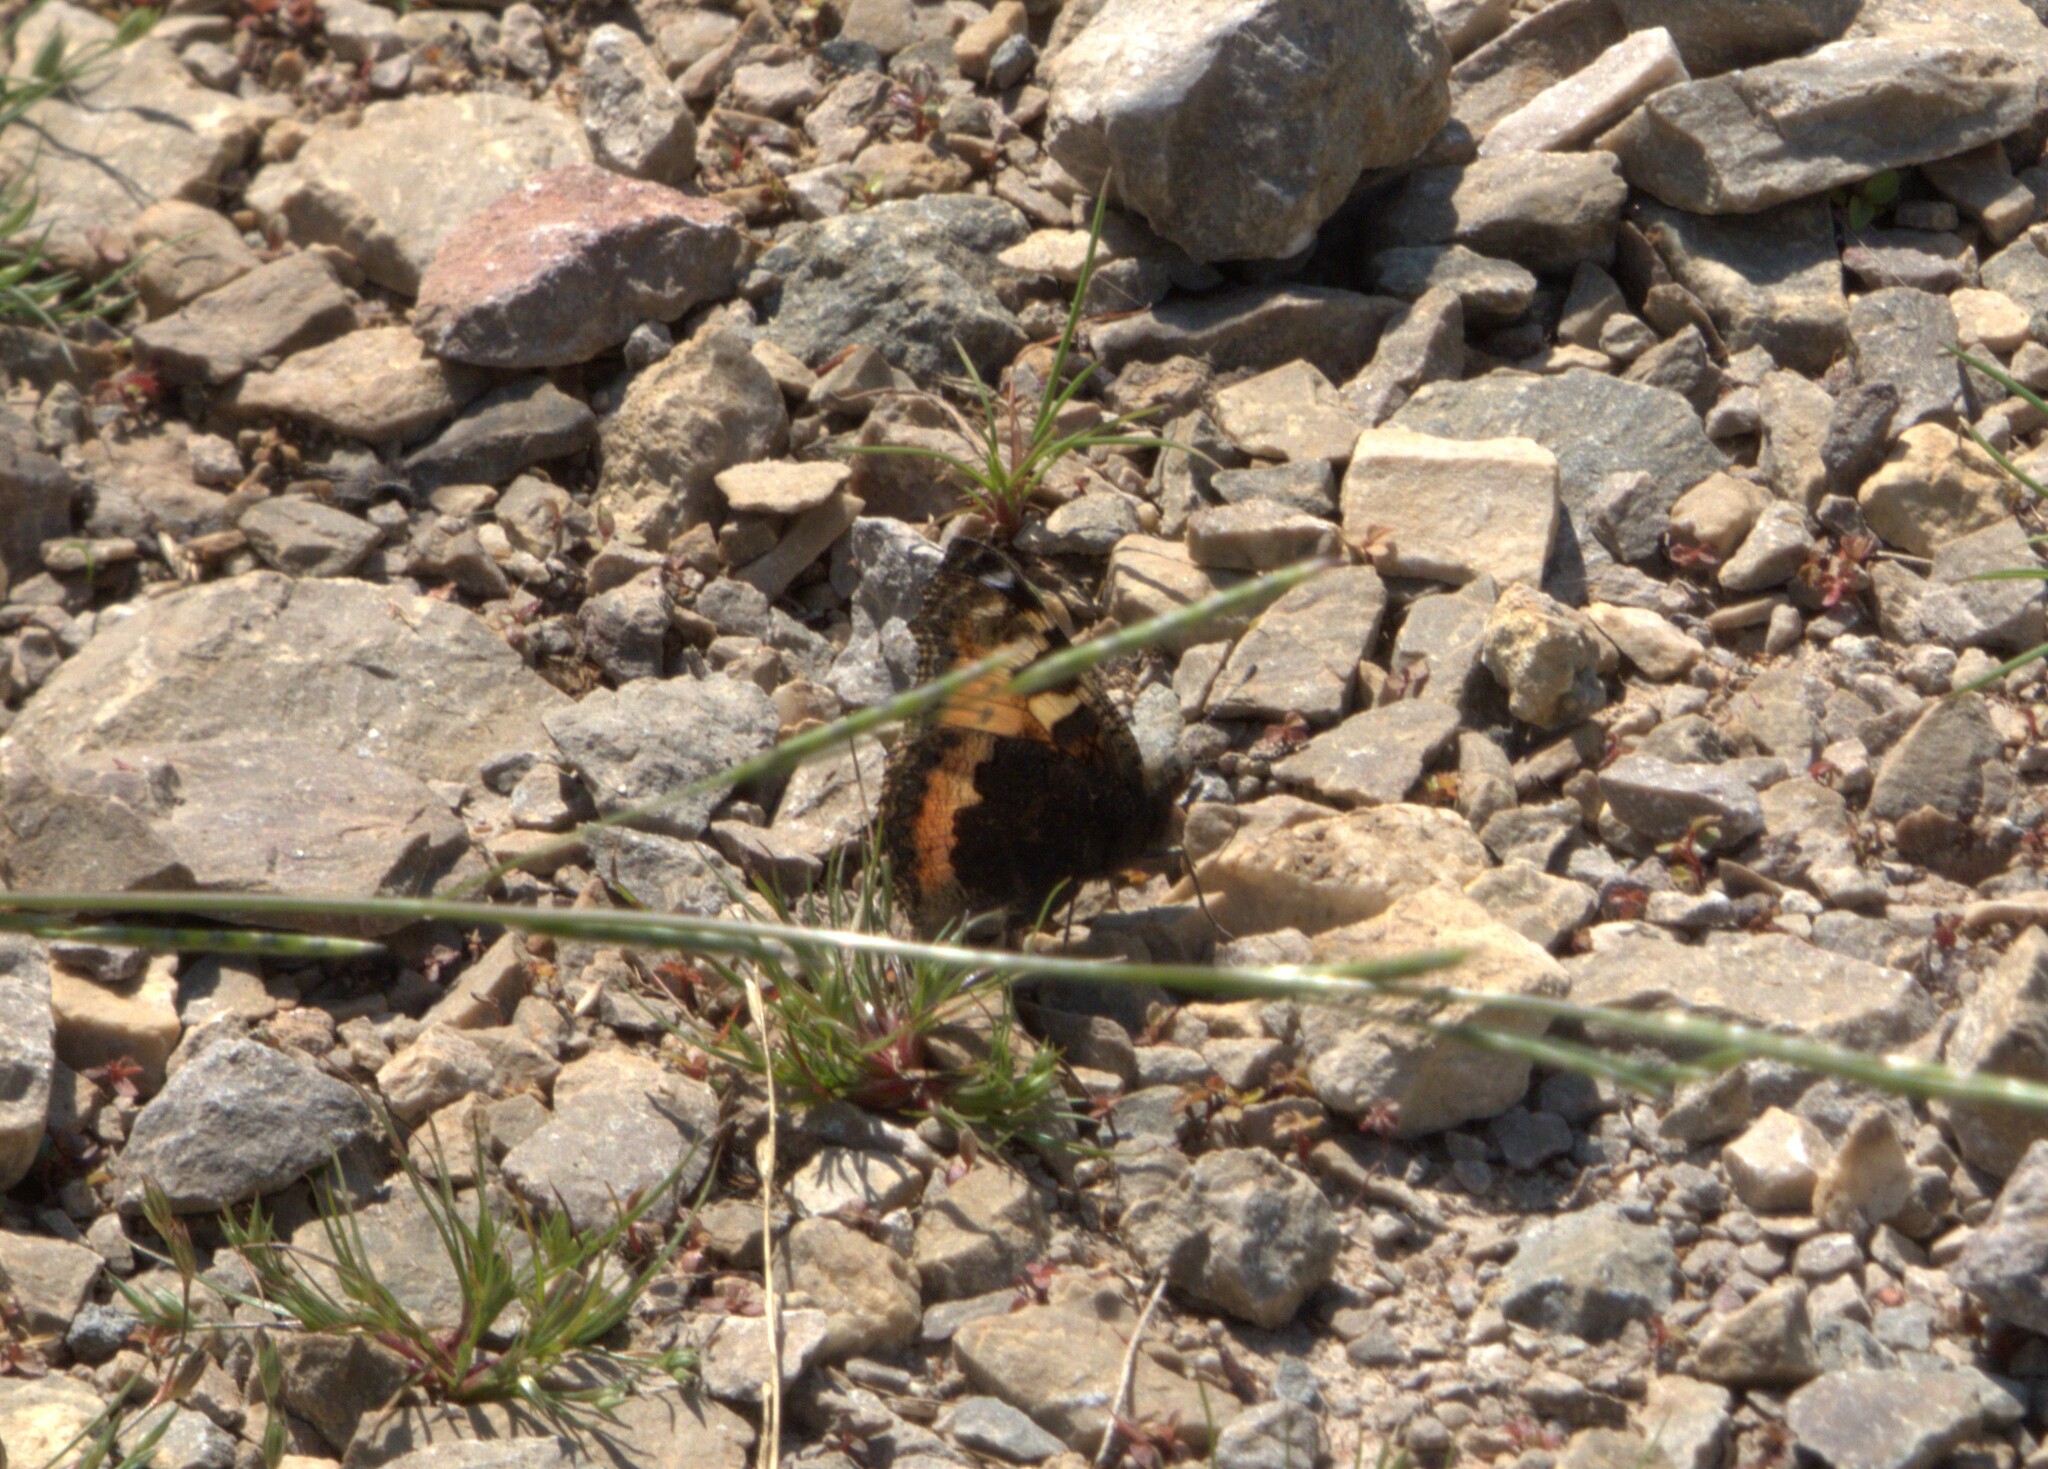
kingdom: Animalia
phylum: Arthropoda
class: Insecta
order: Lepidoptera
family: Nymphalidae
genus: Aglais
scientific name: Aglais urticae
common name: Small tortoiseshell
